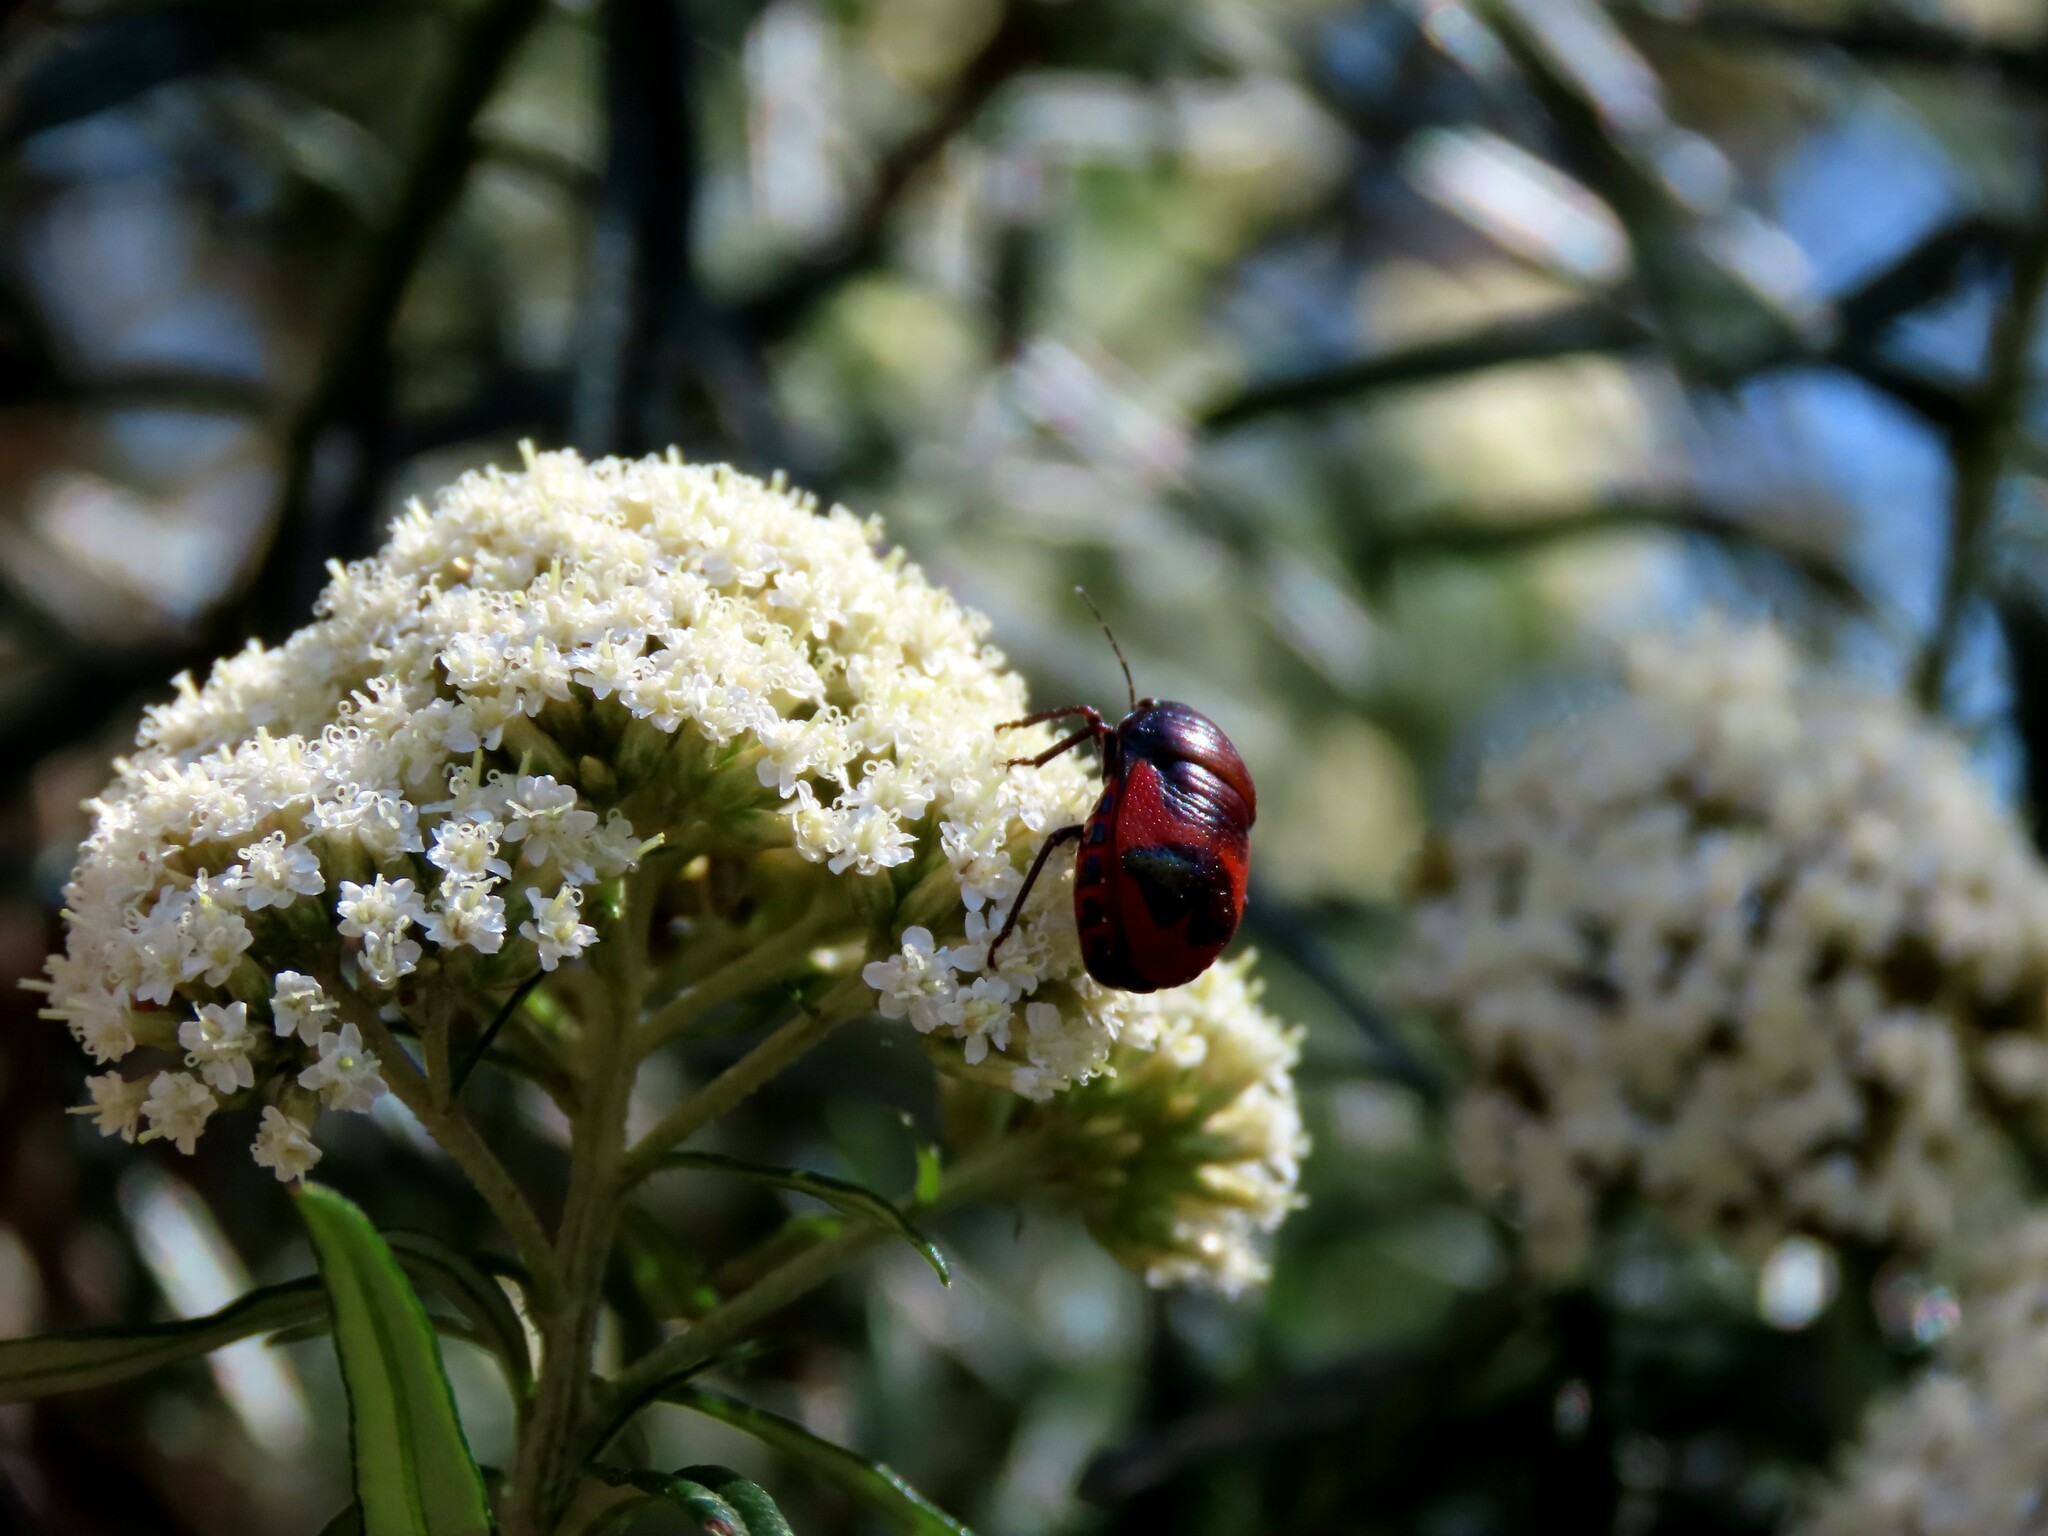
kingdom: Animalia
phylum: Arthropoda
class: Insecta
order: Hemiptera
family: Scutelleridae
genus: Choerocoris
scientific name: Choerocoris paganus
